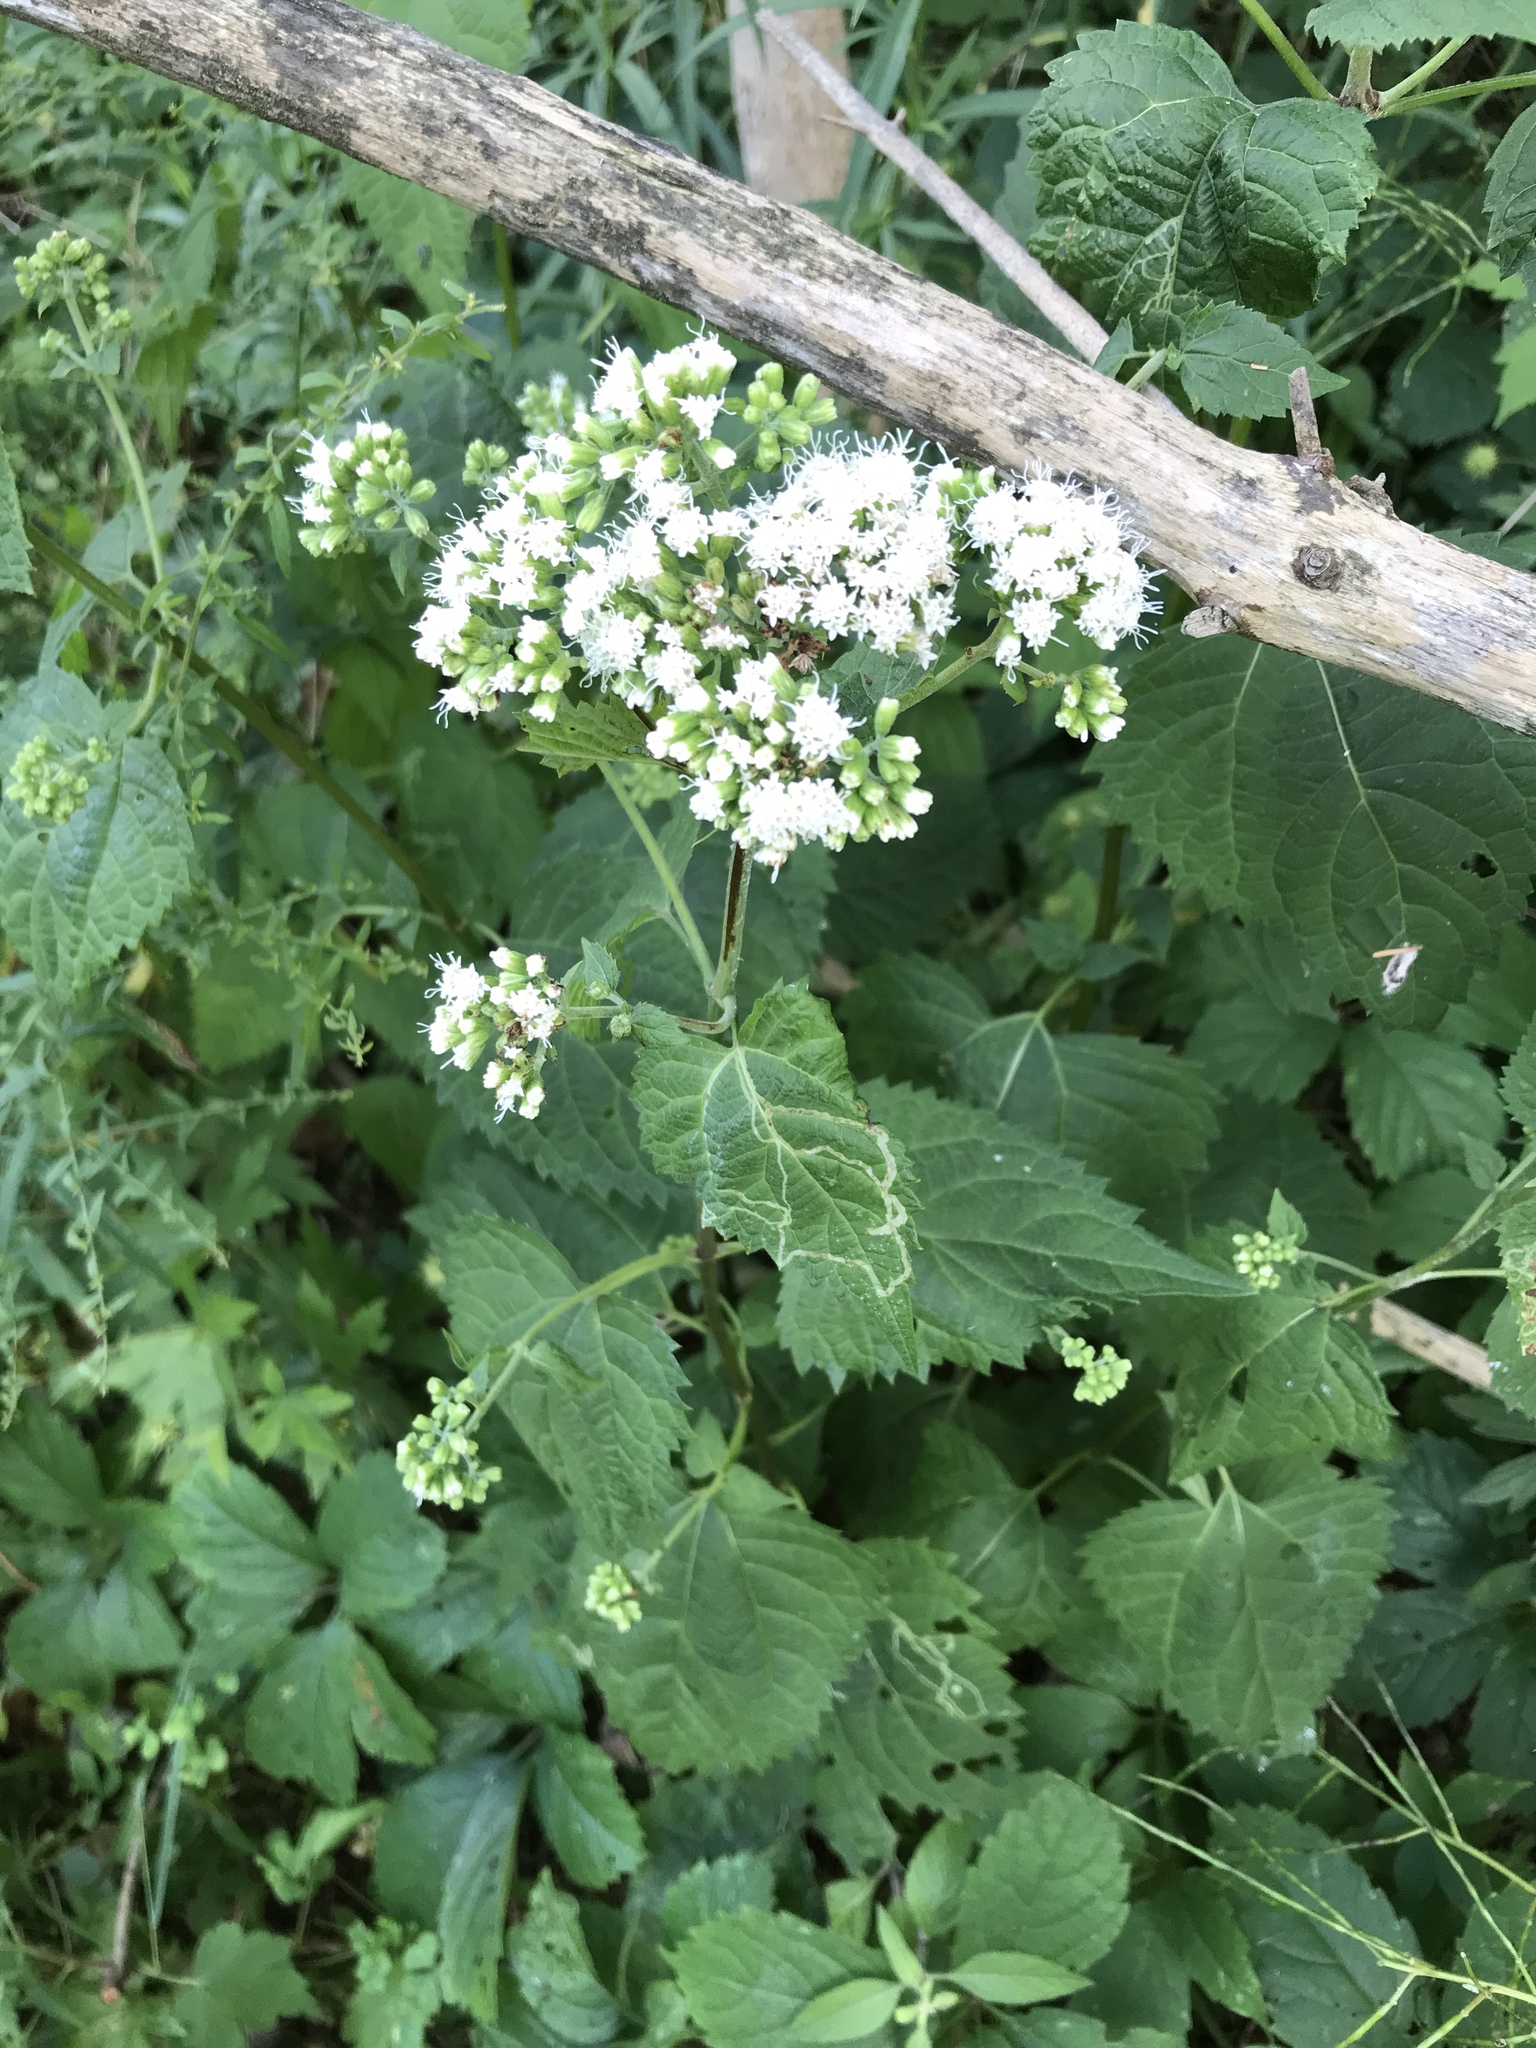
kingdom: Plantae
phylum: Tracheophyta
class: Magnoliopsida
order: Asterales
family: Asteraceae
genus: Ageratina
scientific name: Ageratina altissima
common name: White snakeroot
